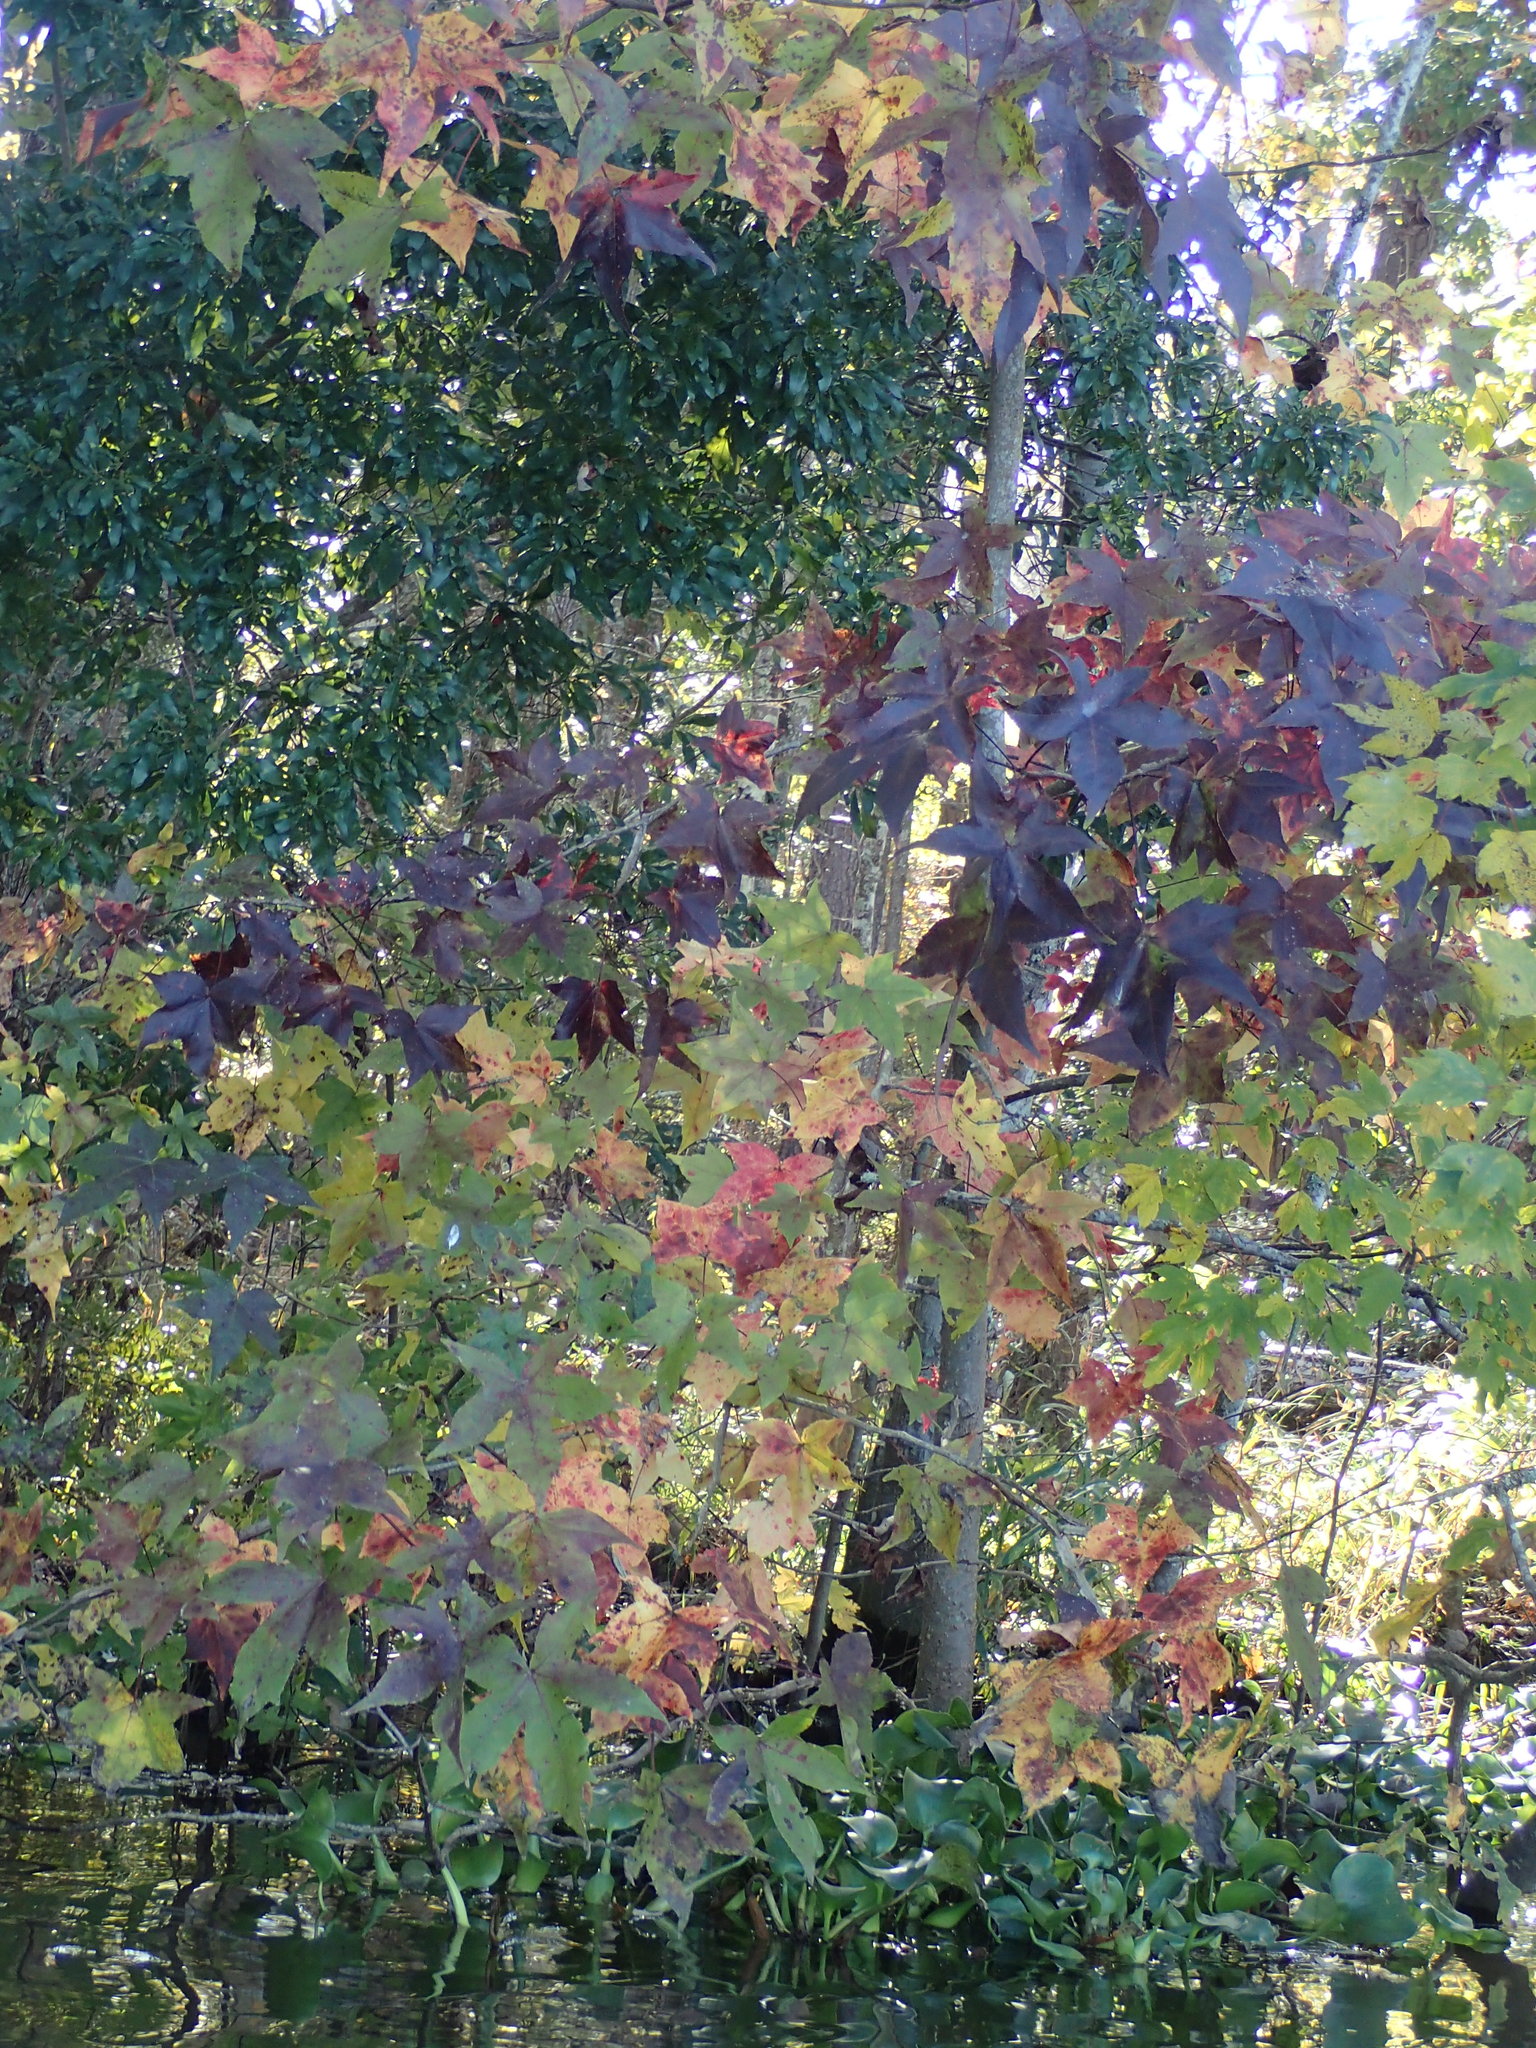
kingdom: Plantae
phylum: Tracheophyta
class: Magnoliopsida
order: Saxifragales
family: Altingiaceae
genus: Liquidambar
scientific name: Liquidambar styraciflua
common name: Sweet gum
